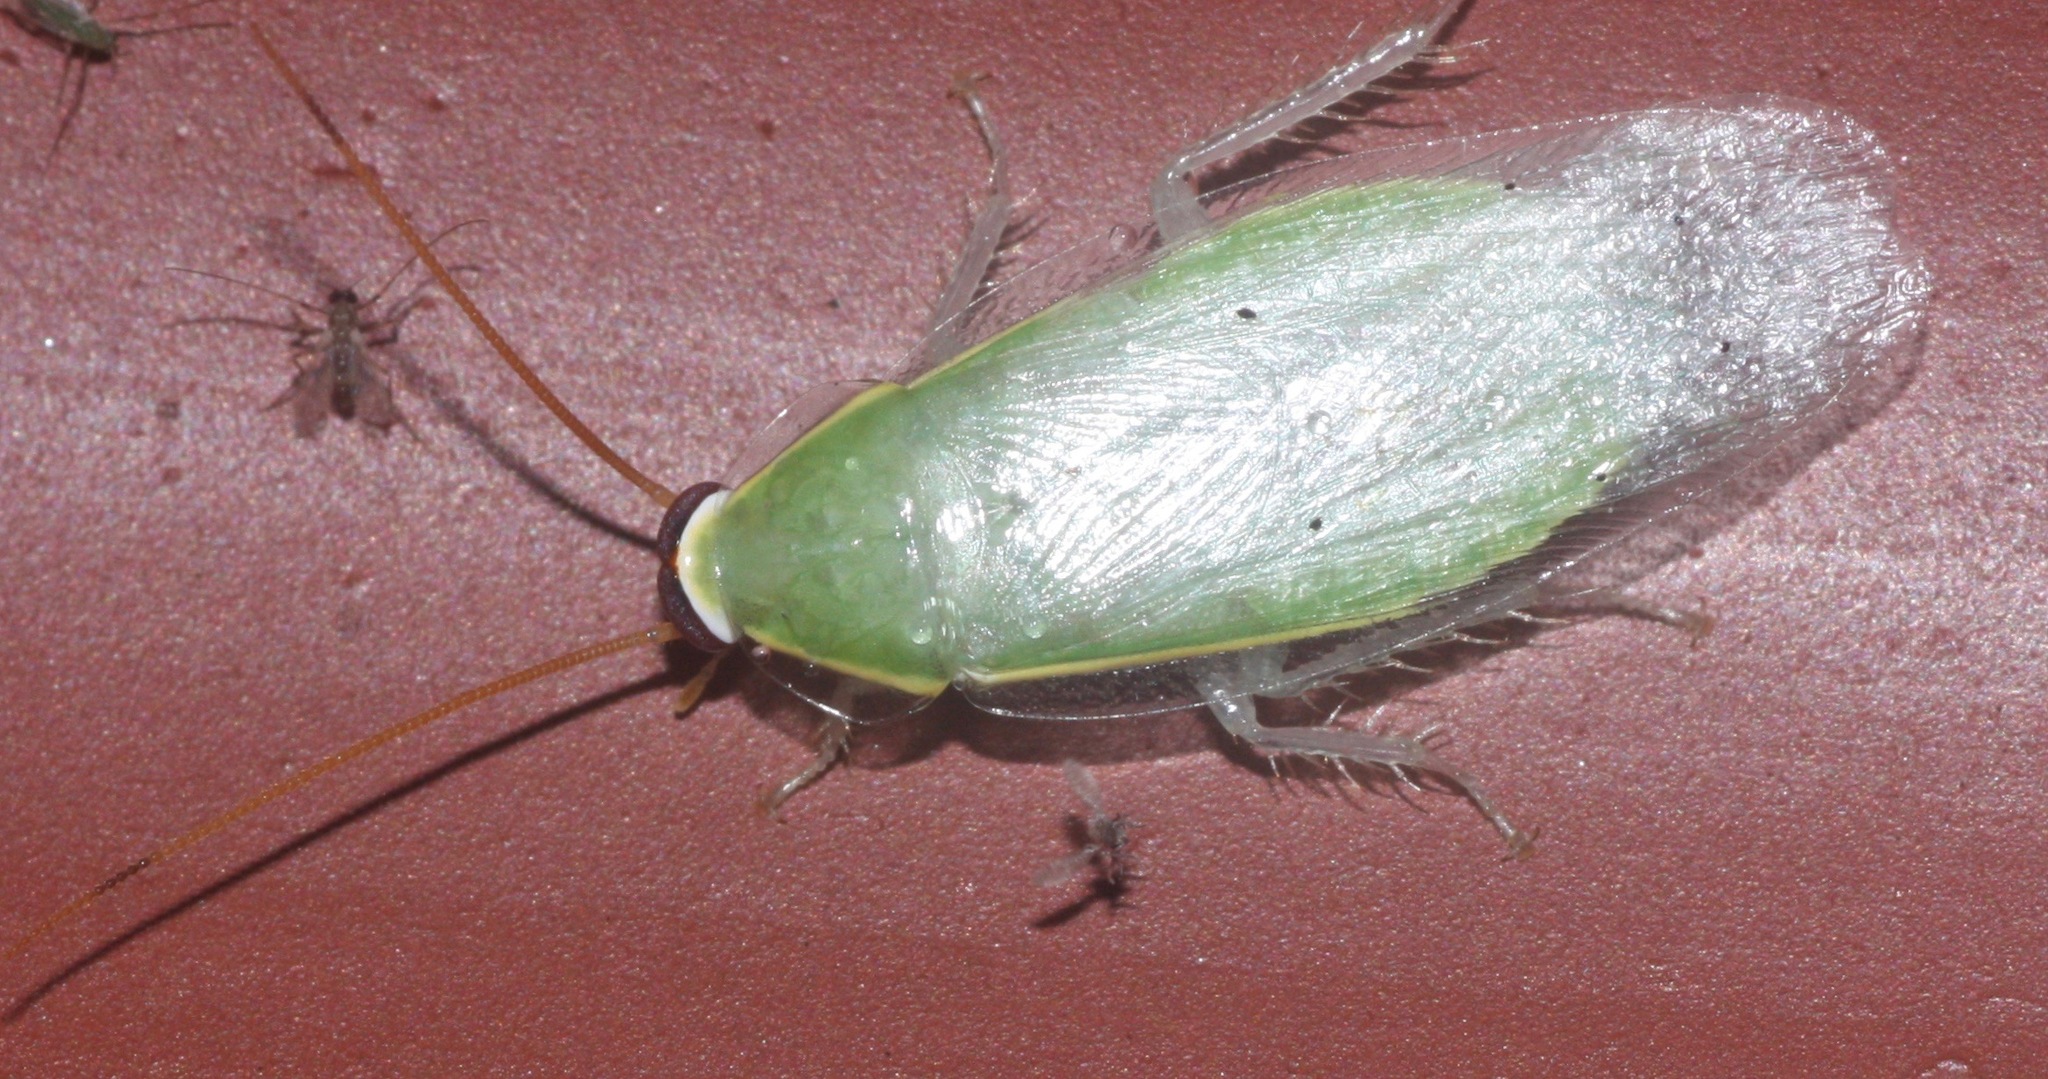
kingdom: Animalia
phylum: Arthropoda
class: Insecta
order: Blattodea
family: Blaberidae
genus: Panchlora
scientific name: Panchlora nivea
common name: Cuban cockroach
